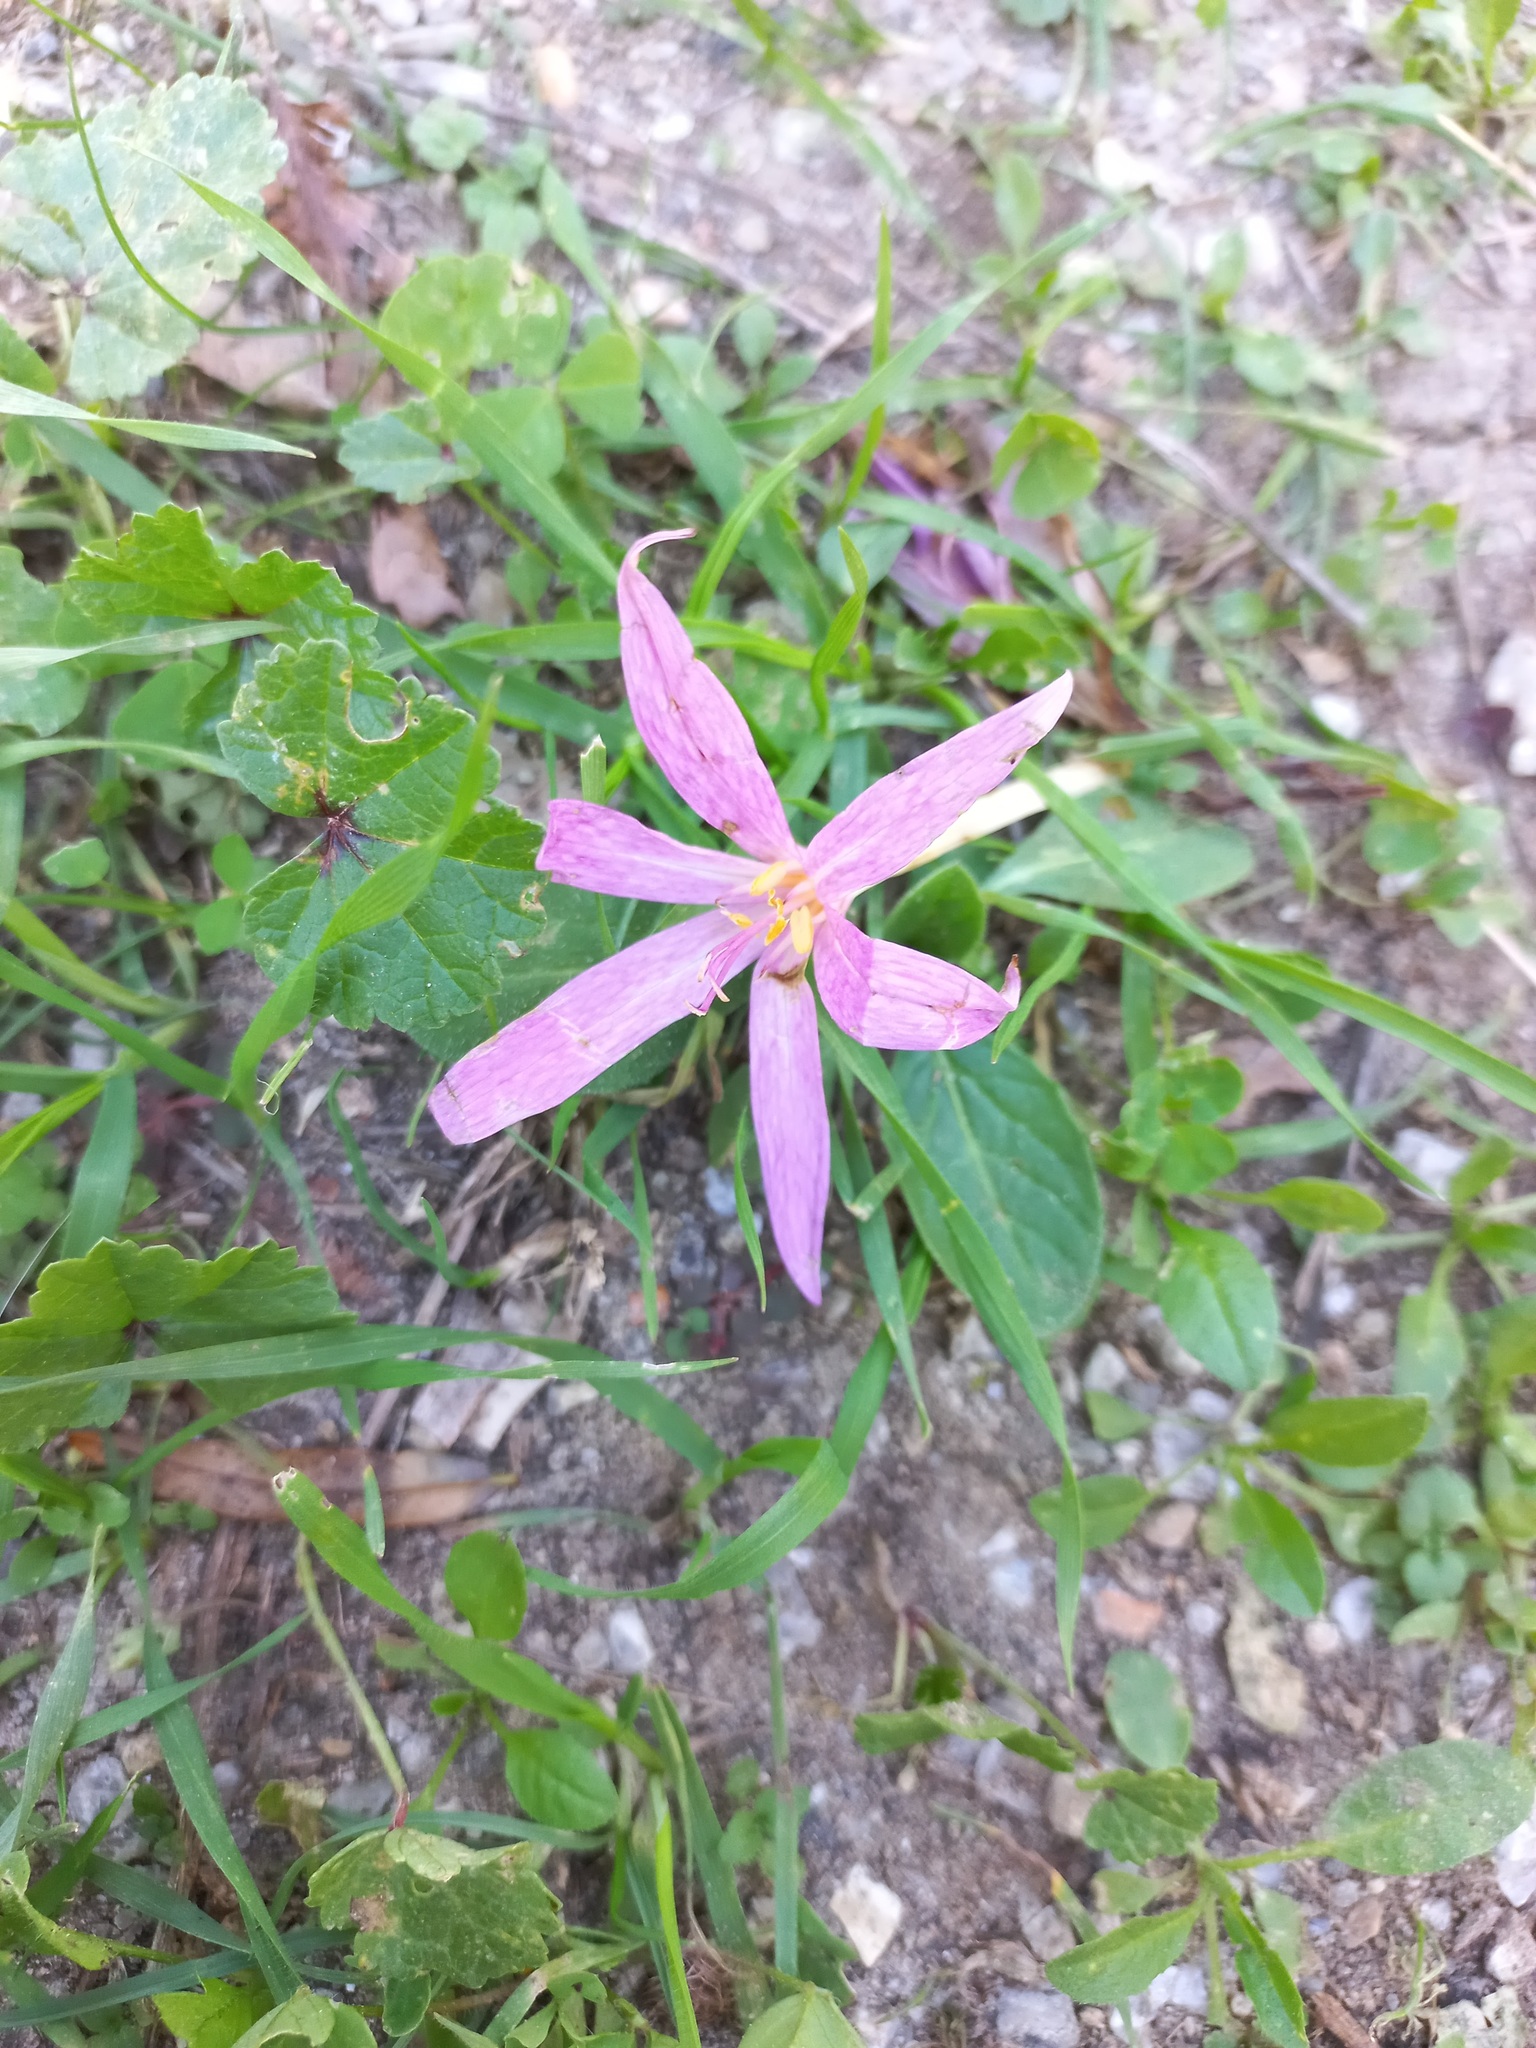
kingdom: Plantae
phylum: Tracheophyta
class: Liliopsida
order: Liliales
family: Colchicaceae
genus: Colchicum
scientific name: Colchicum lusitanum
